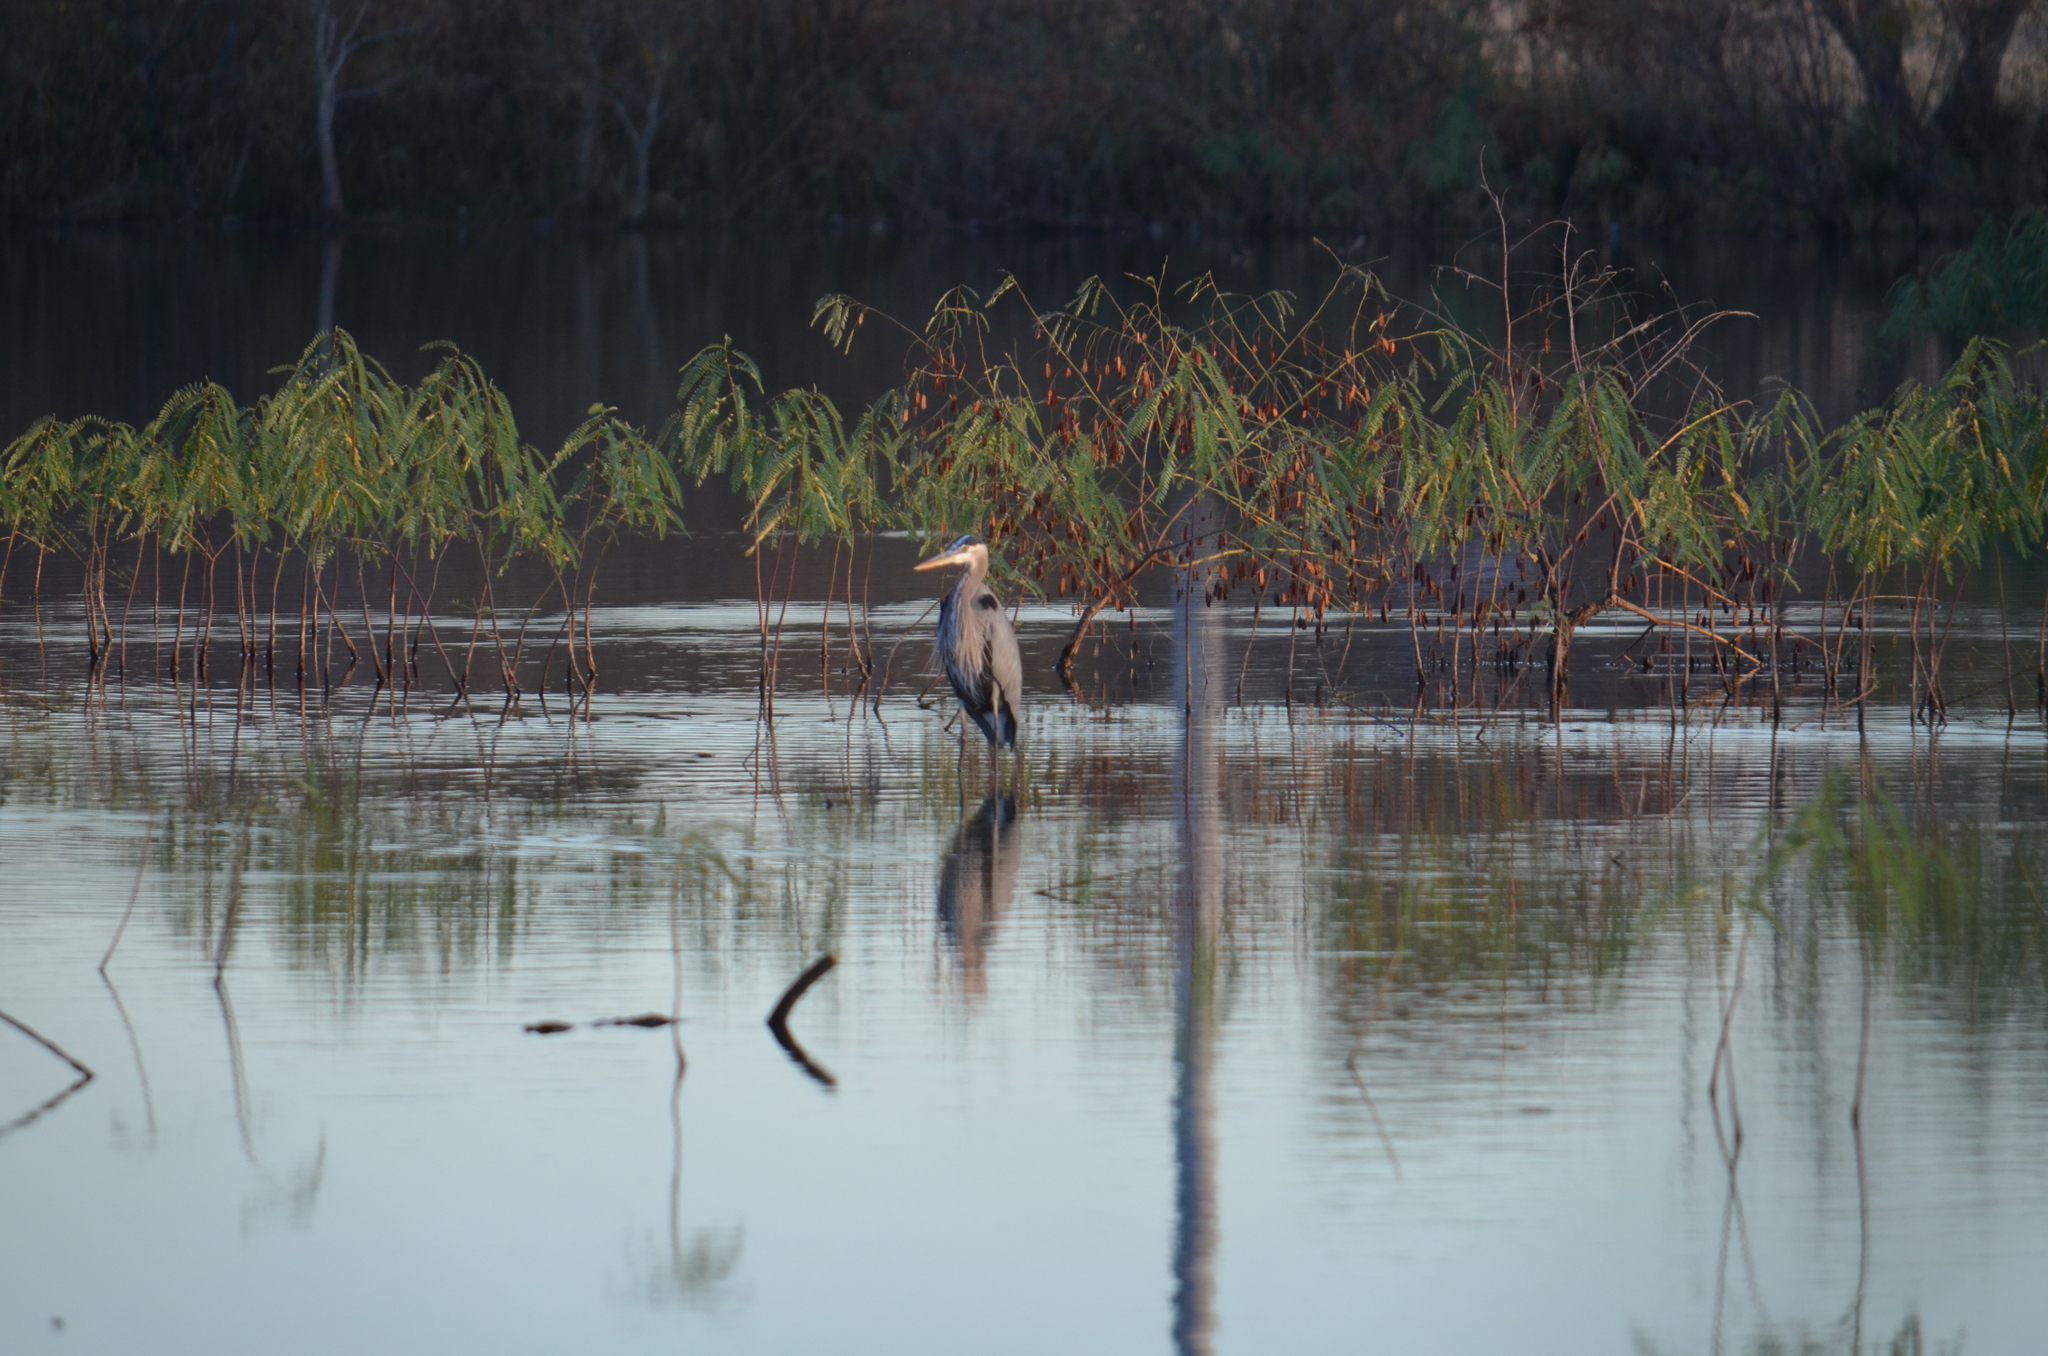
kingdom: Animalia
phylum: Chordata
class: Aves
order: Pelecaniformes
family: Ardeidae
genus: Ardea
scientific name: Ardea herodias
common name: Great blue heron
